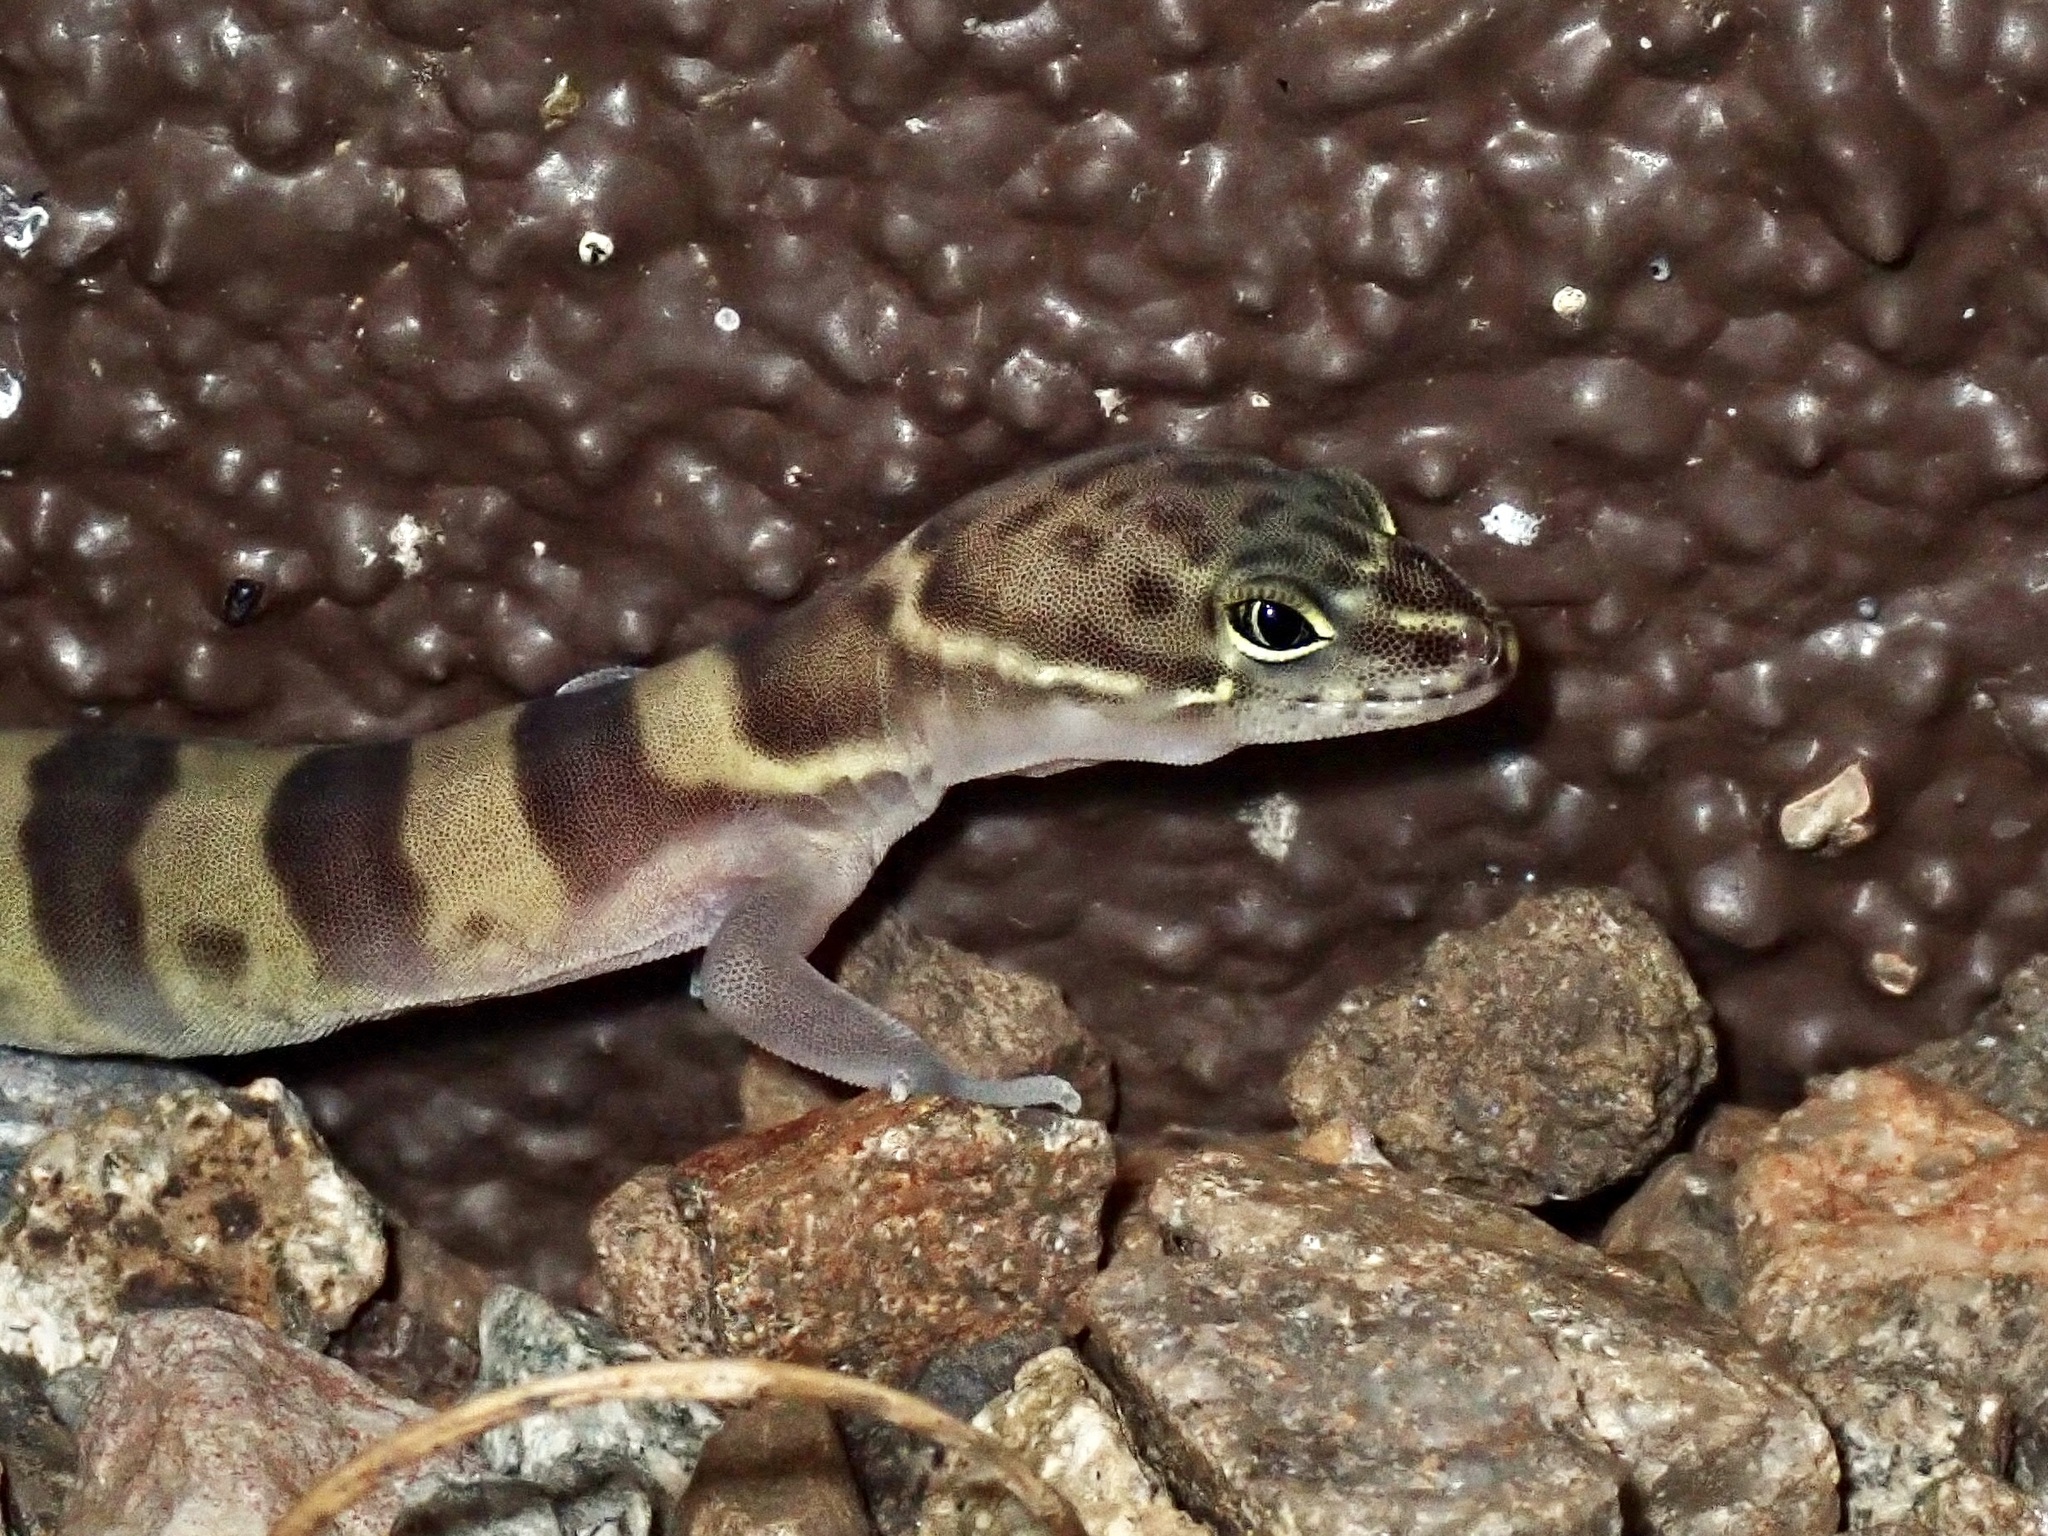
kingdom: Animalia
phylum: Chordata
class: Squamata
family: Eublepharidae
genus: Coleonyx
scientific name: Coleonyx variegatus
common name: Western banded gecko
